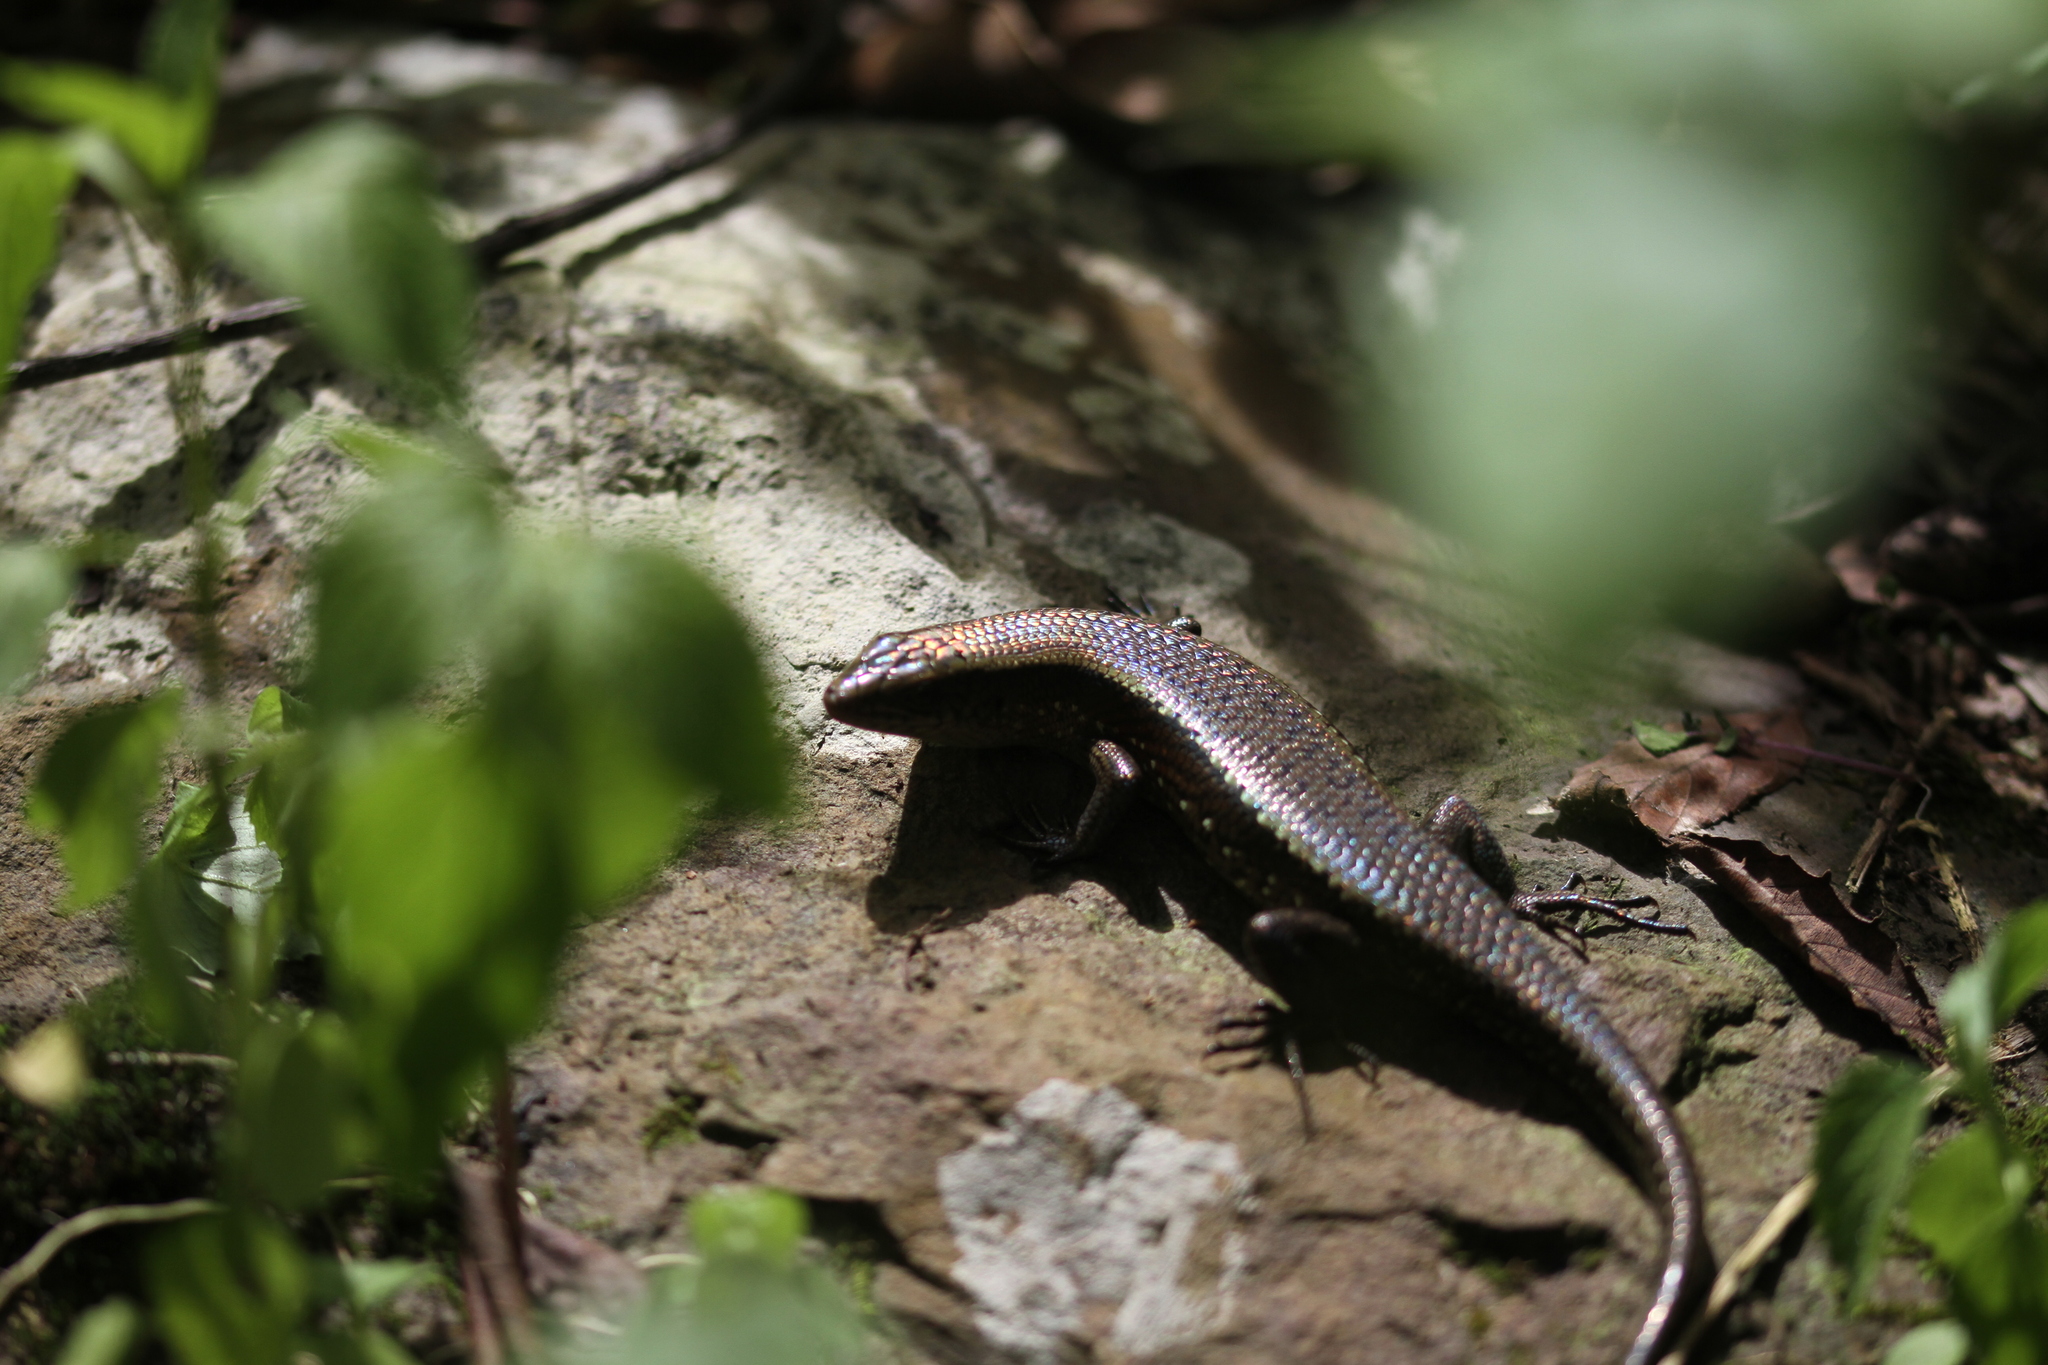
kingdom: Animalia
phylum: Chordata
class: Squamata
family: Scincidae
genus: Eutropis
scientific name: Eutropis multifasciata
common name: Common mabuya
